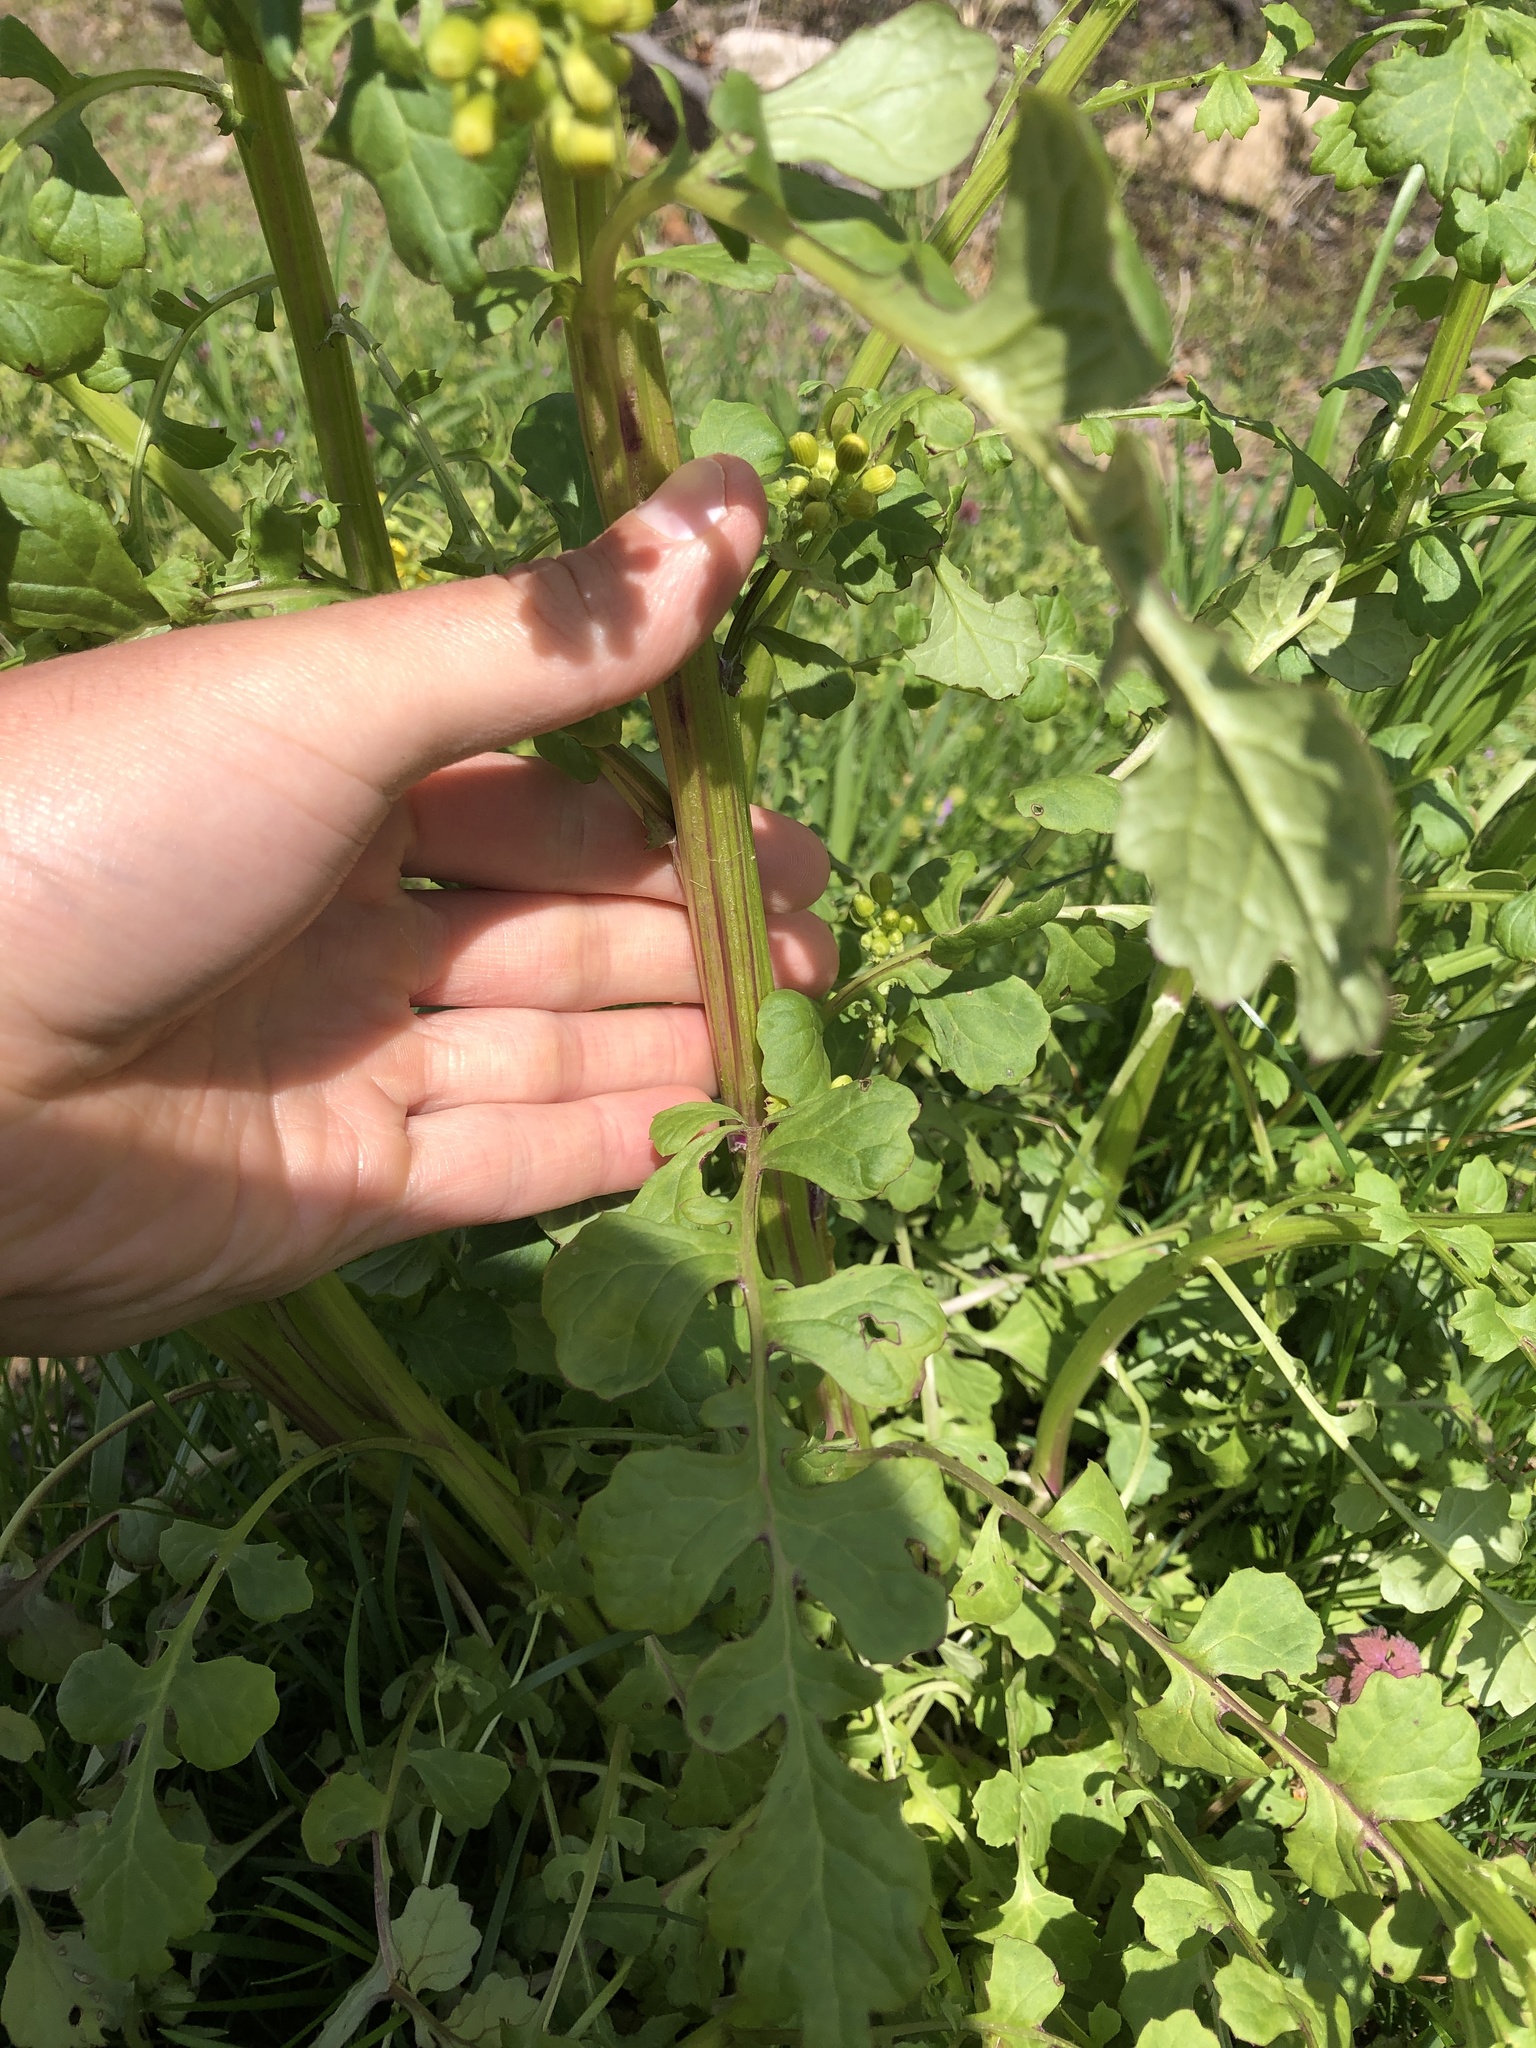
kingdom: Plantae
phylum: Tracheophyta
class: Magnoliopsida
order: Asterales
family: Asteraceae
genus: Packera
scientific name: Packera glabella
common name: Butterweed
